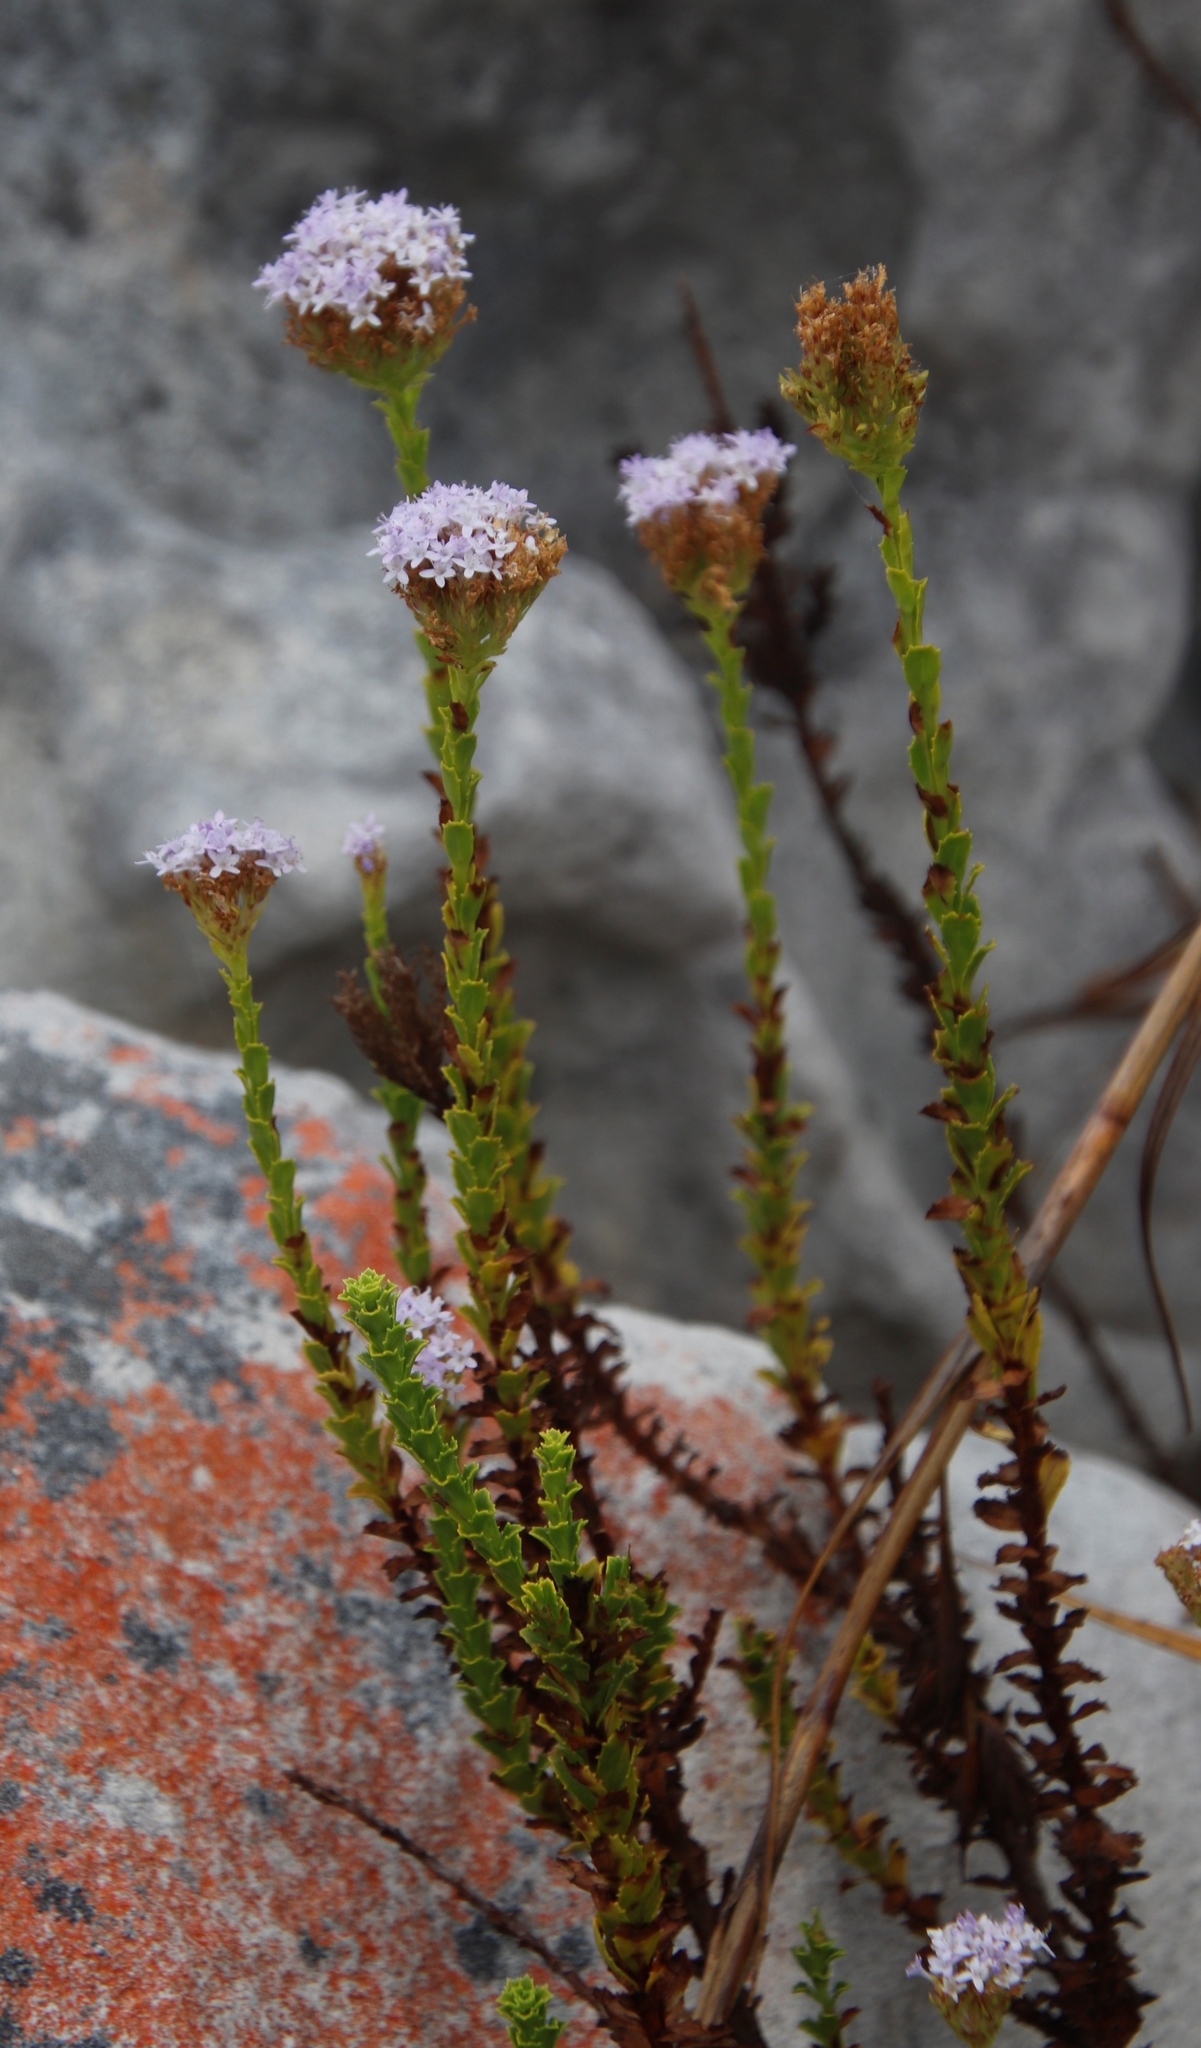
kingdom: Plantae
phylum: Tracheophyta
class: Magnoliopsida
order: Lamiales
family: Scrophulariaceae
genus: Pseudoselago
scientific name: Pseudoselago serrata
